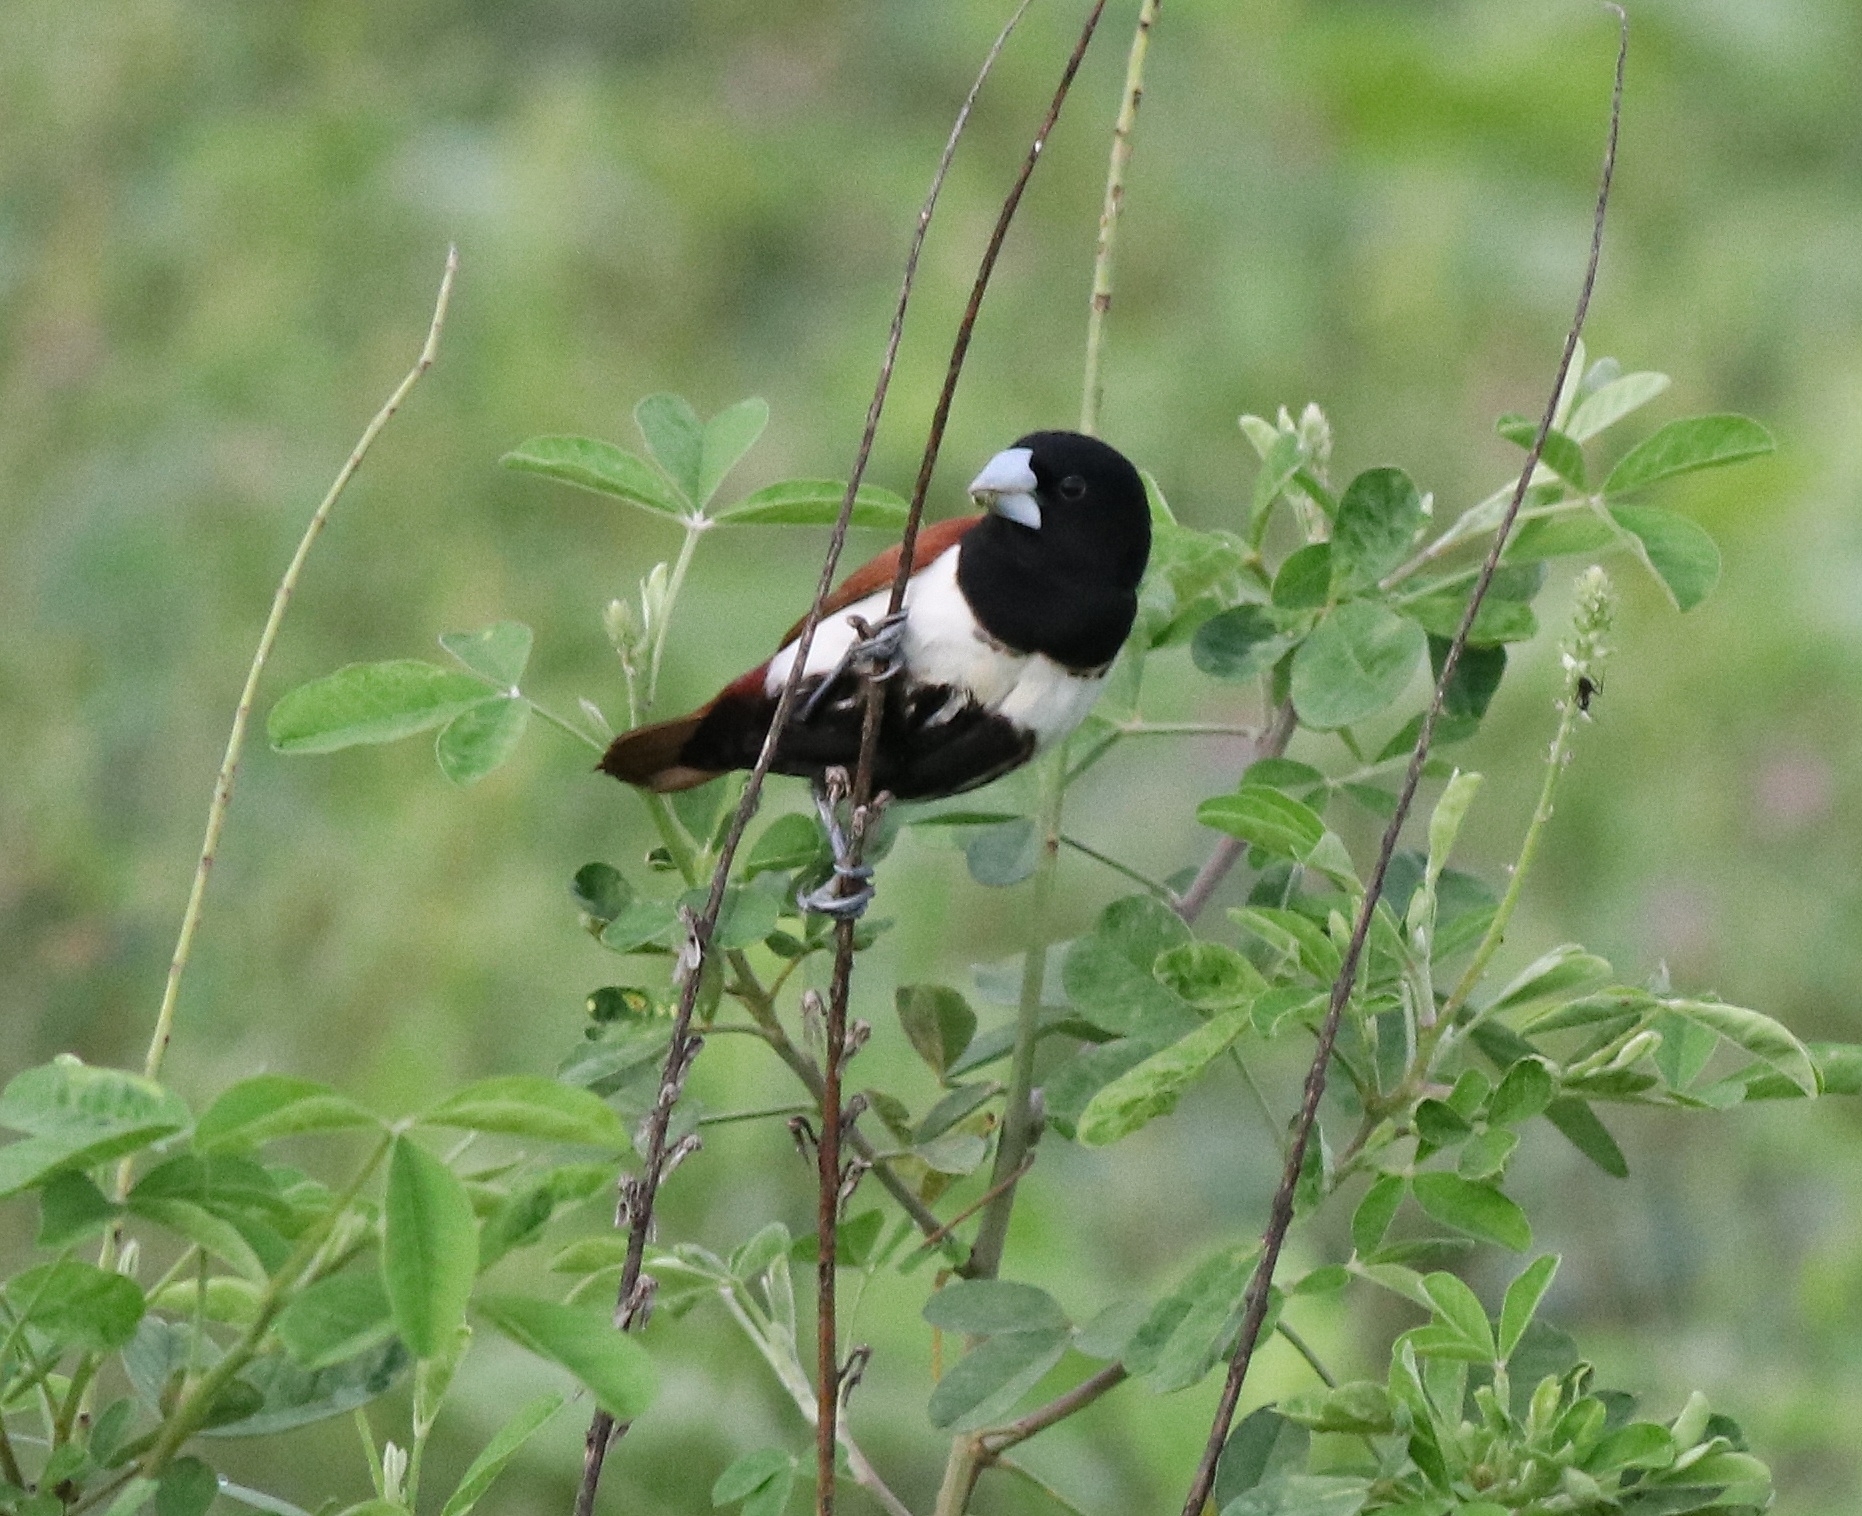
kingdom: Animalia
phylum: Chordata
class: Aves
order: Passeriformes
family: Estrildidae
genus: Lonchura
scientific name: Lonchura malacca
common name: Tricolored munia
